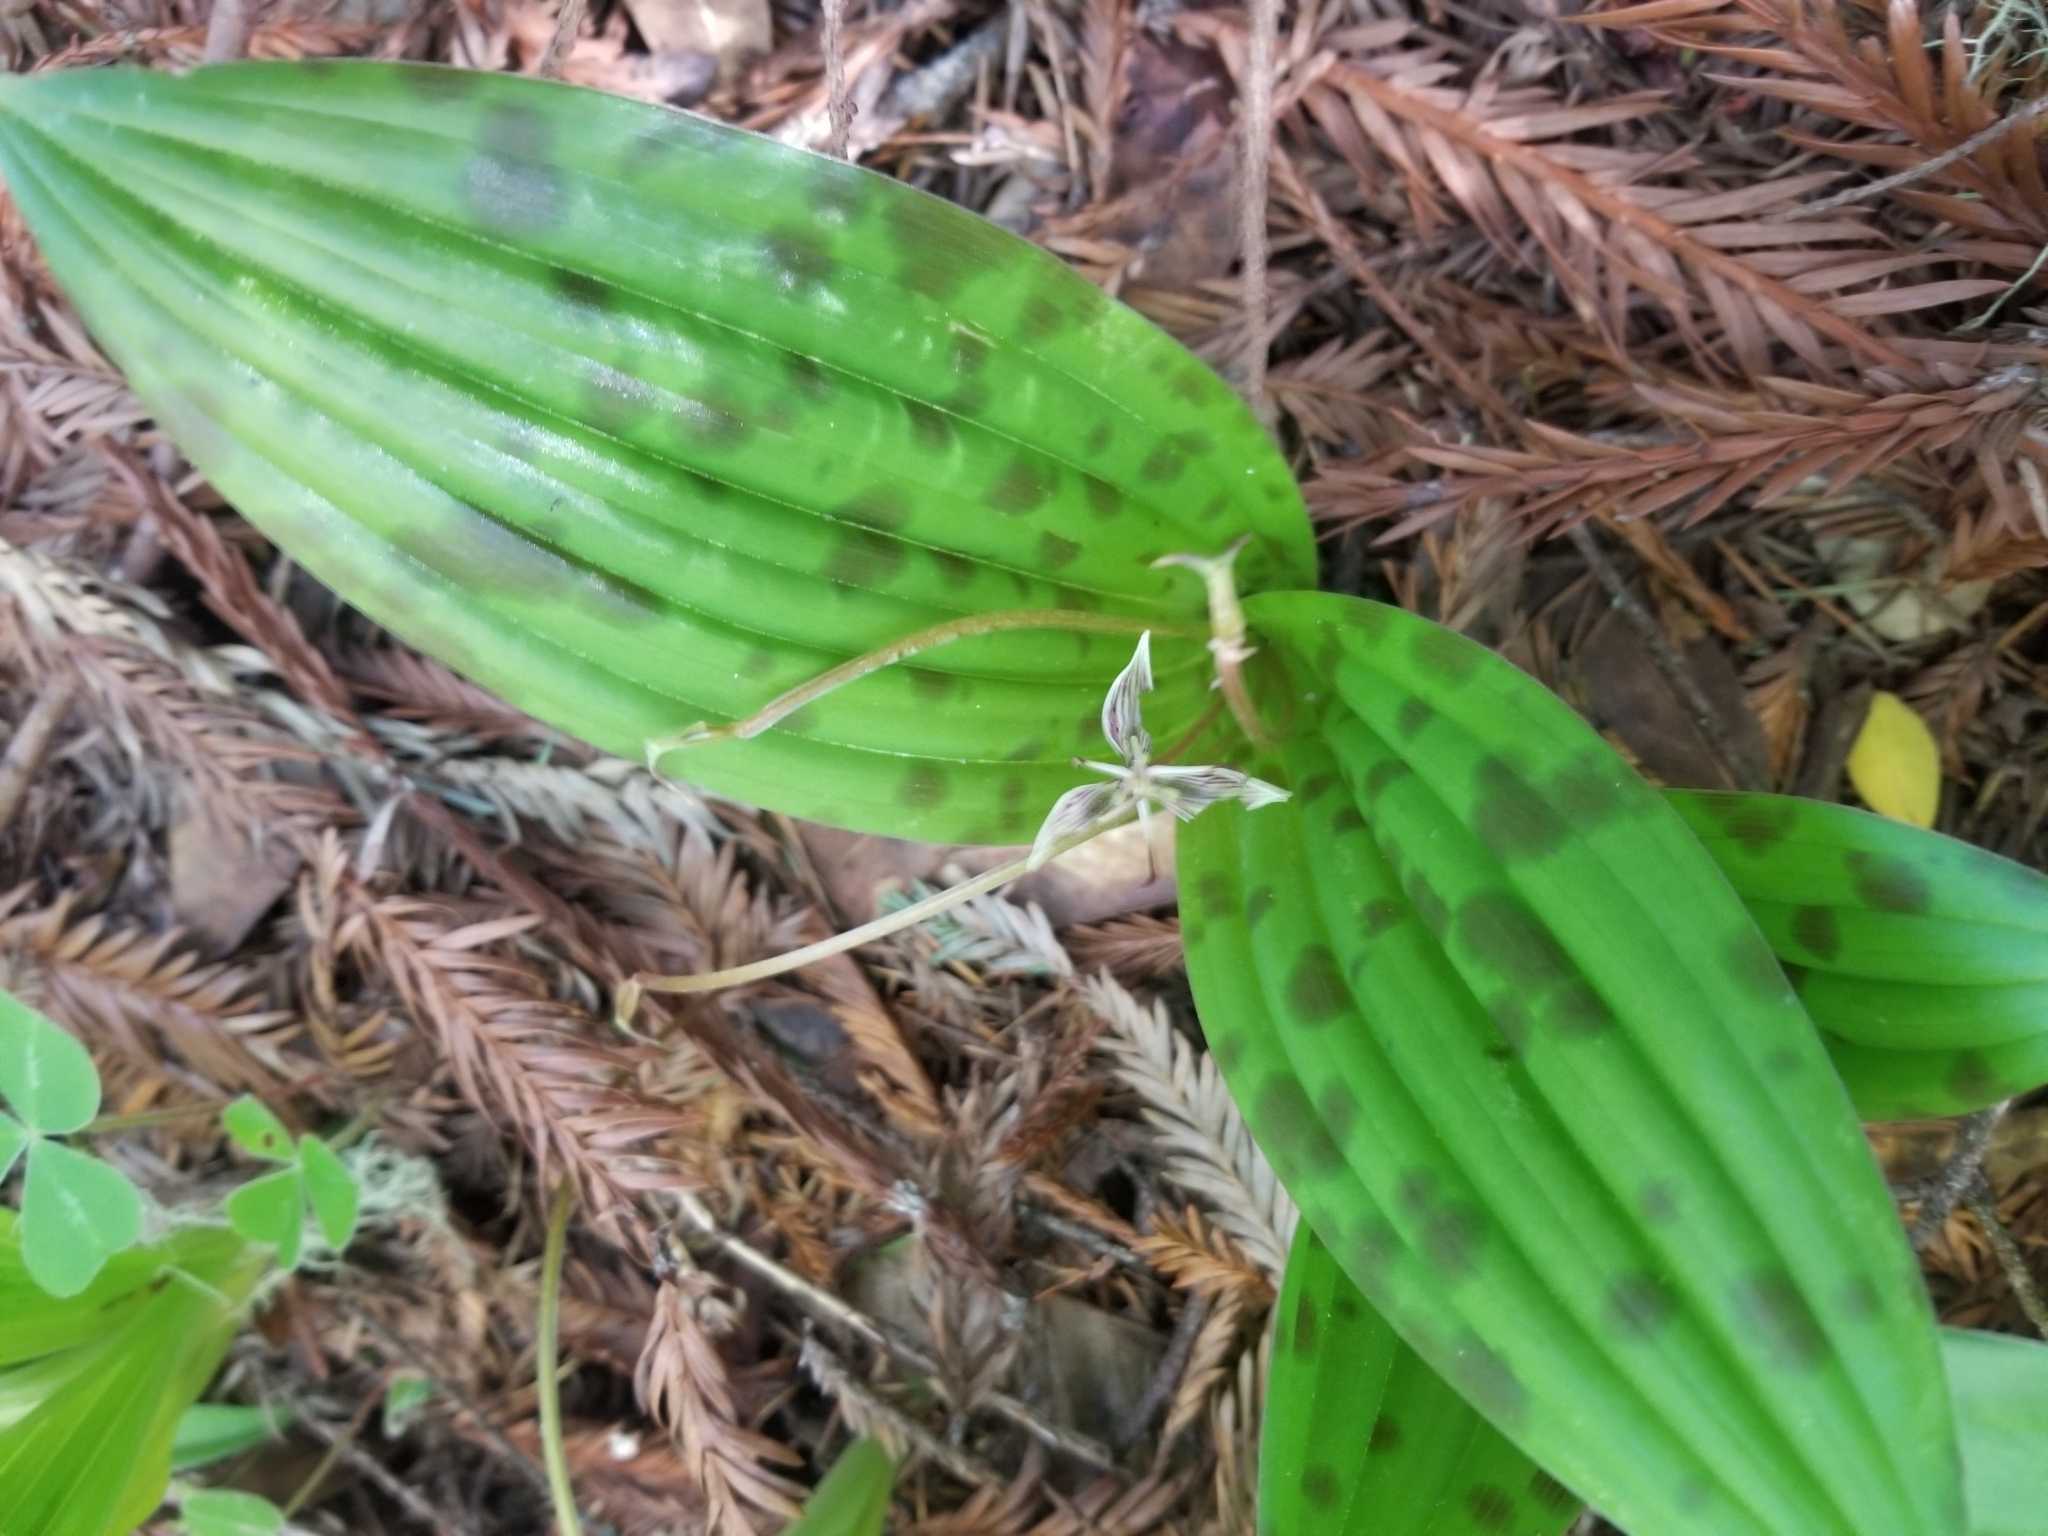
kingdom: Plantae
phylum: Tracheophyta
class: Liliopsida
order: Liliales
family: Liliaceae
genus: Scoliopus
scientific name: Scoliopus bigelovii
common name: Foetid adder's-tongue
